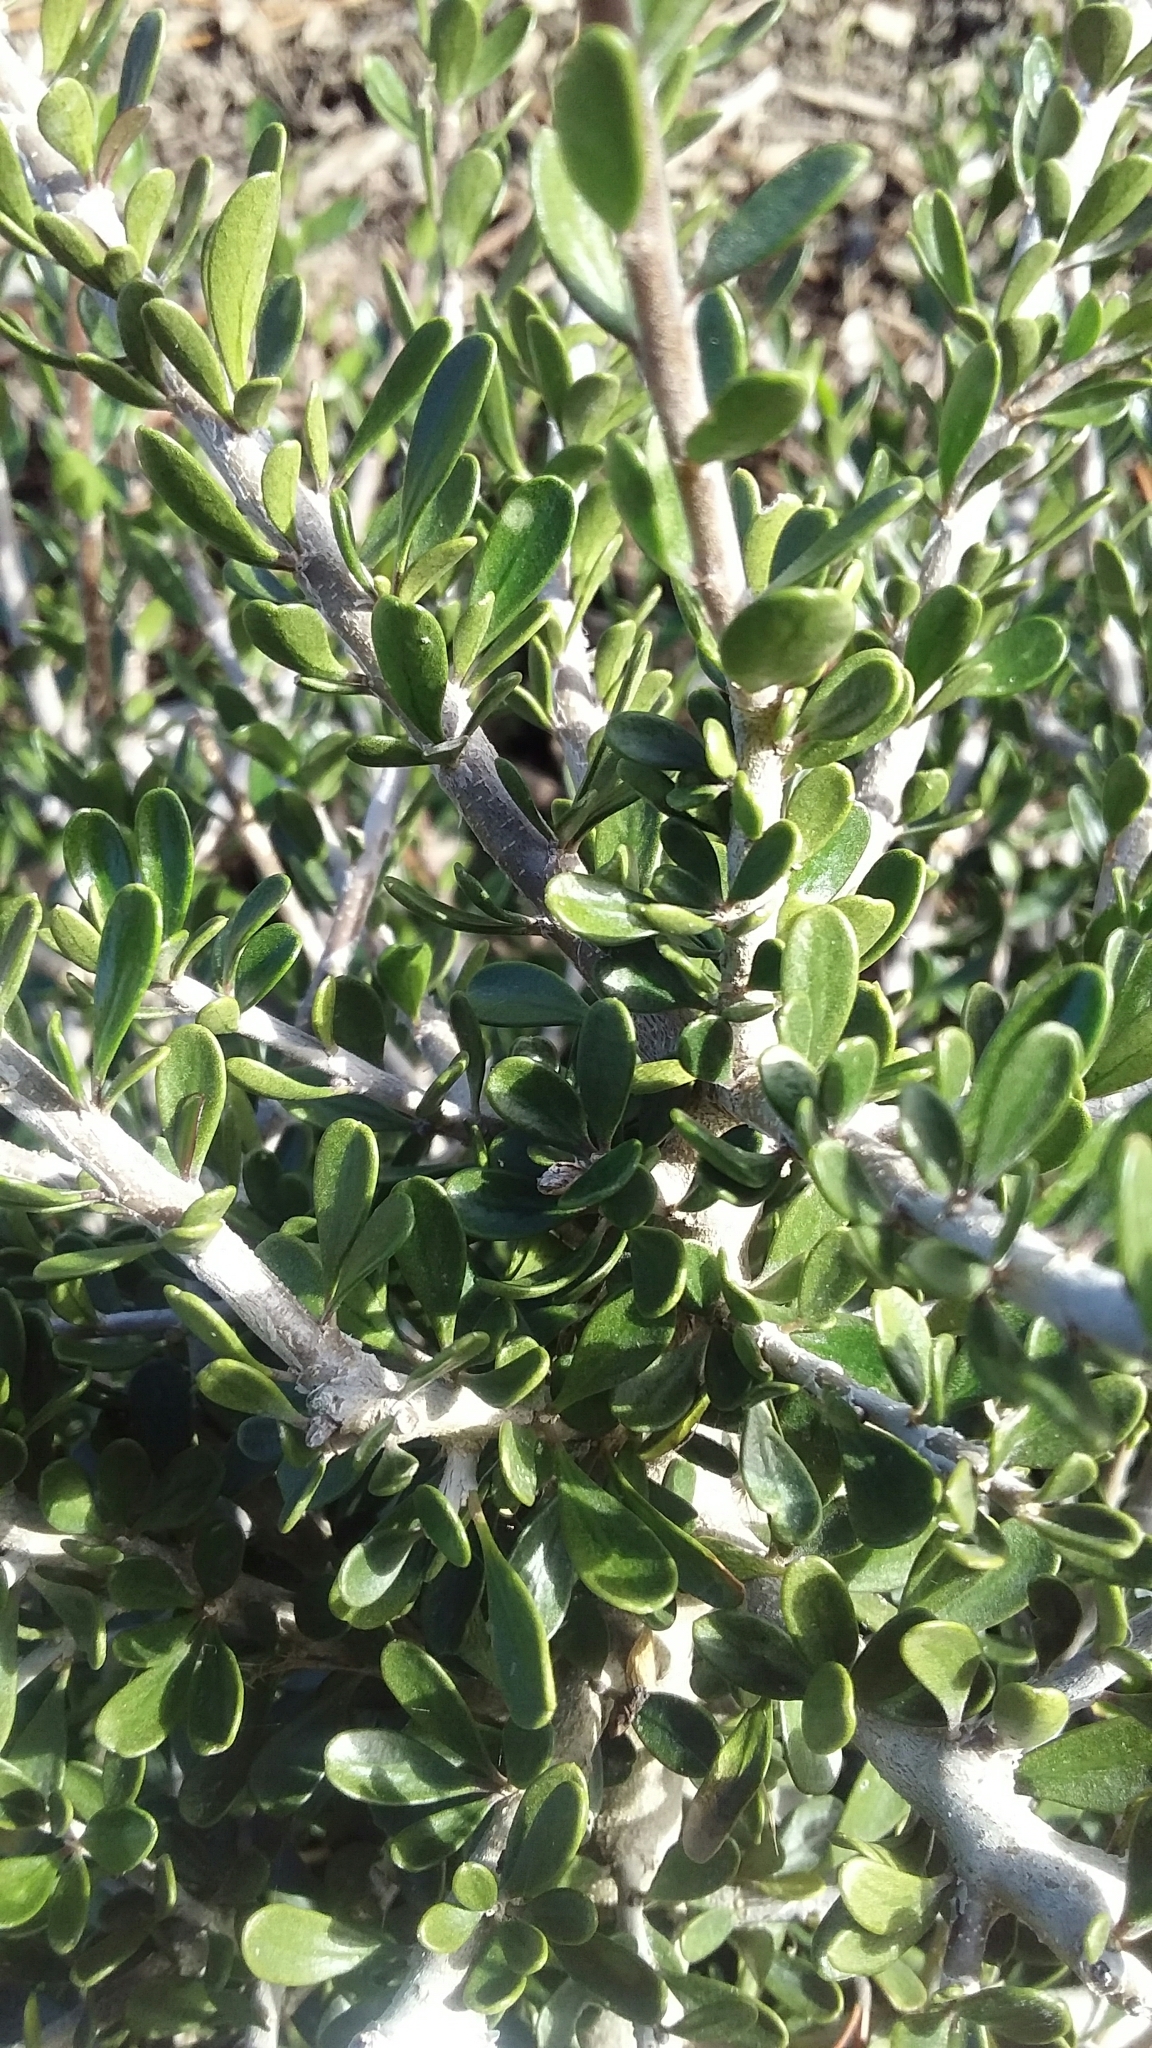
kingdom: Plantae
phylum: Tracheophyta
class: Magnoliopsida
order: Malpighiales
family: Violaceae
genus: Melicytus
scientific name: Melicytus crassifolius
